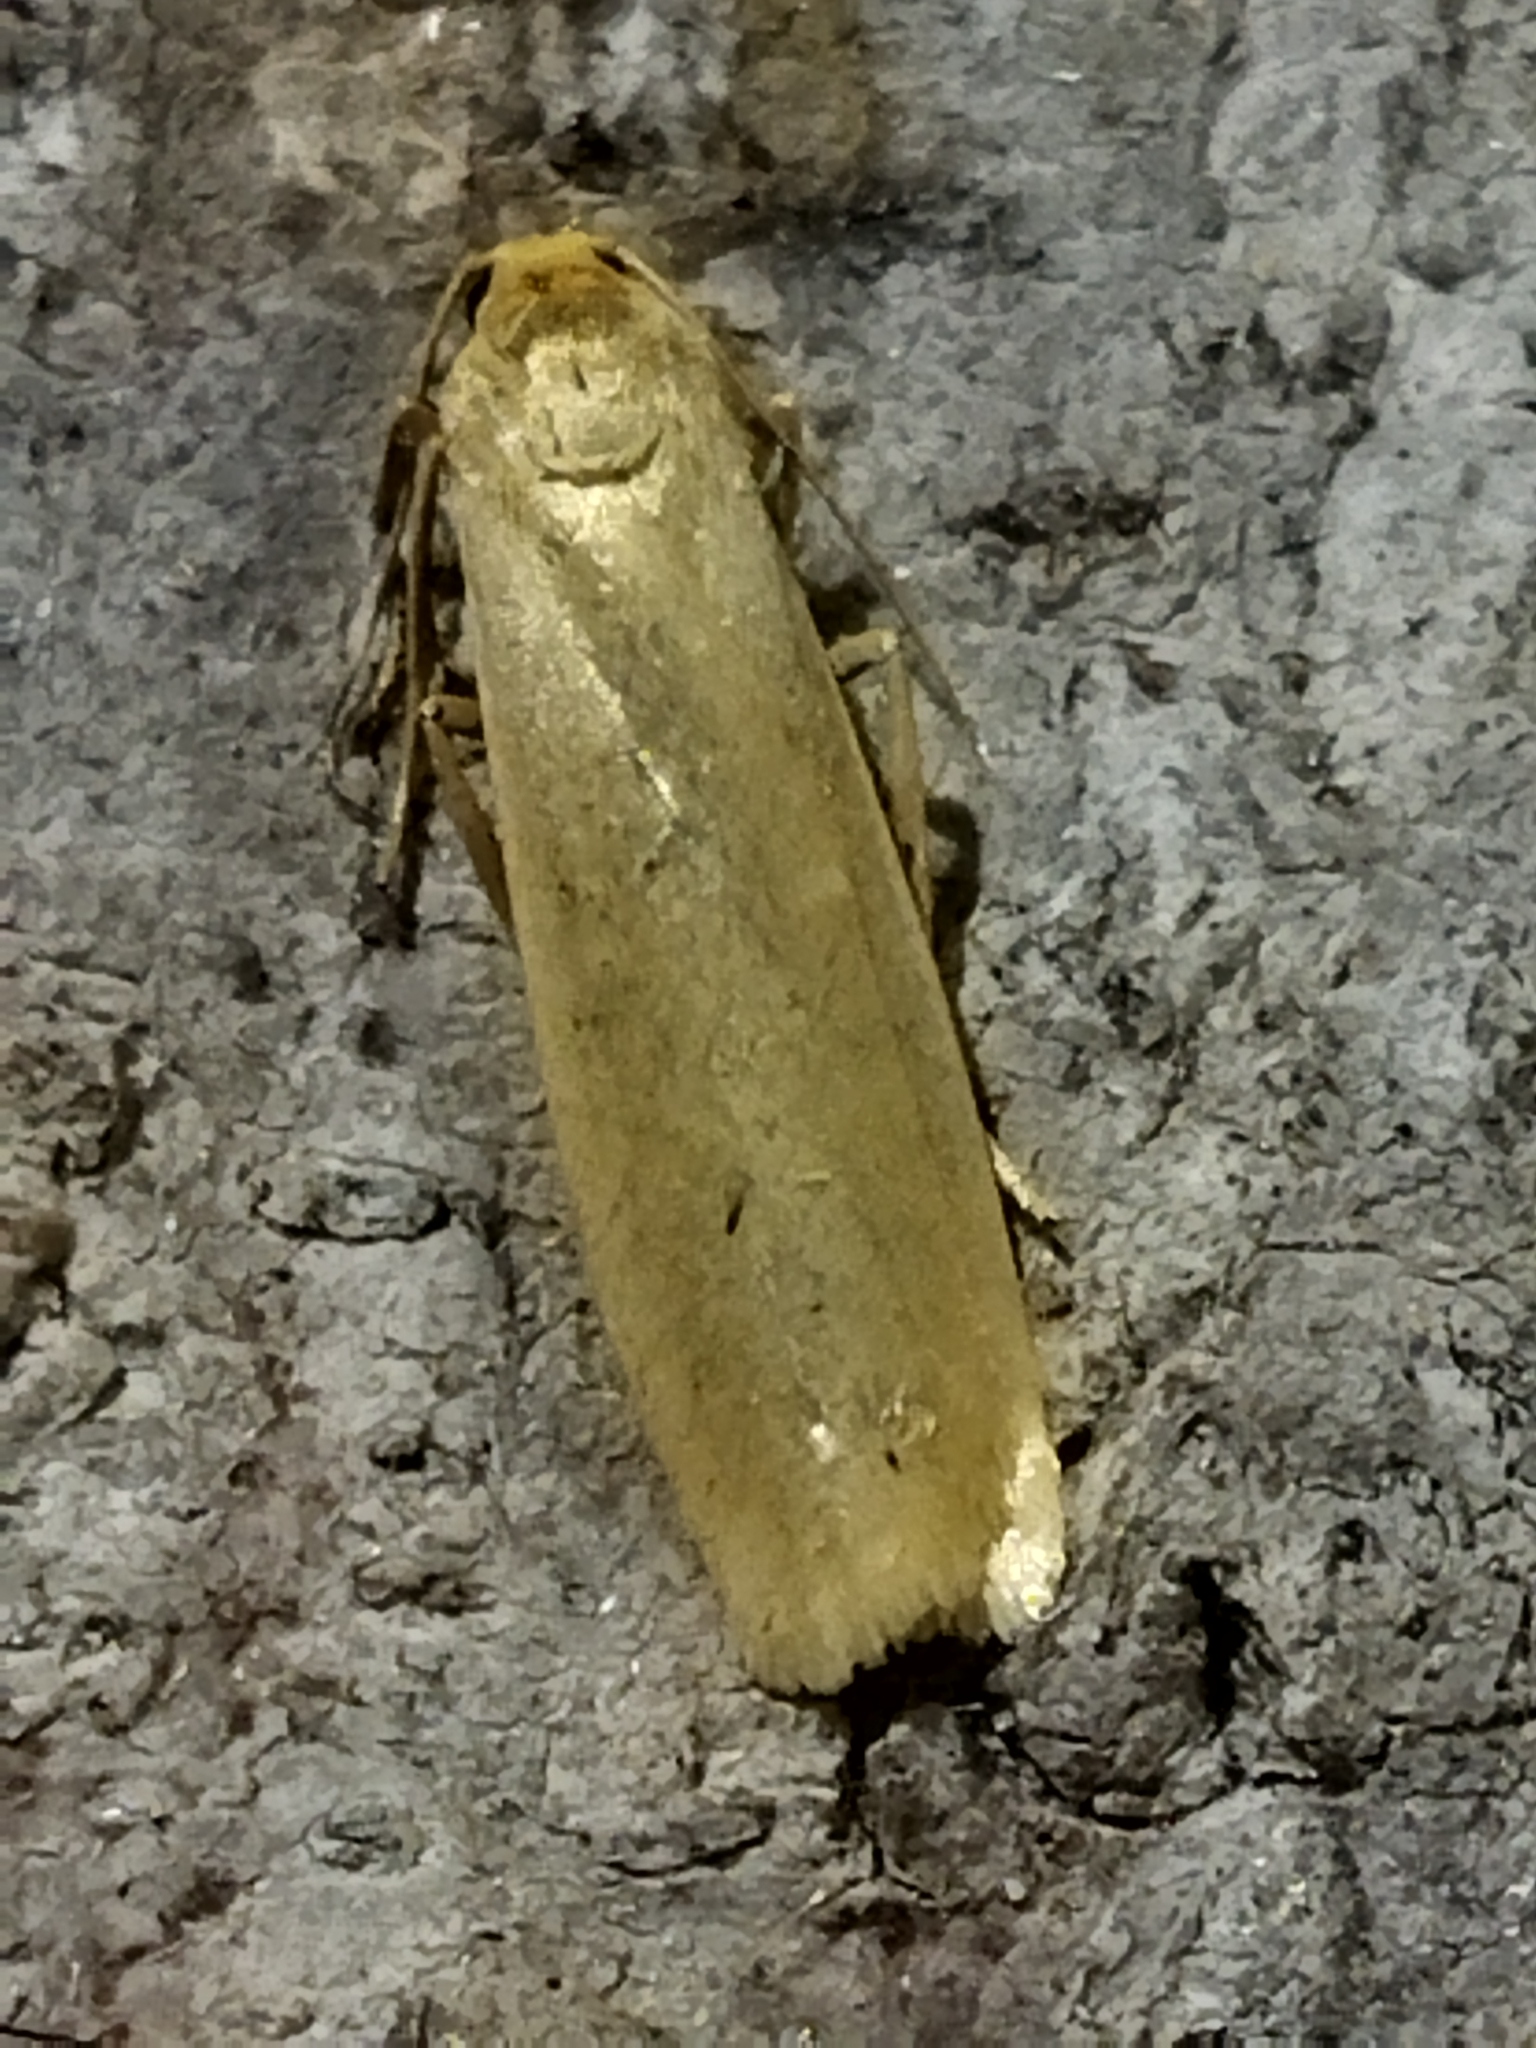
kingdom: Animalia
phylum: Arthropoda
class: Insecta
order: Lepidoptera
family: Erebidae
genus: Indalia
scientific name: Indalia pygmaeola
